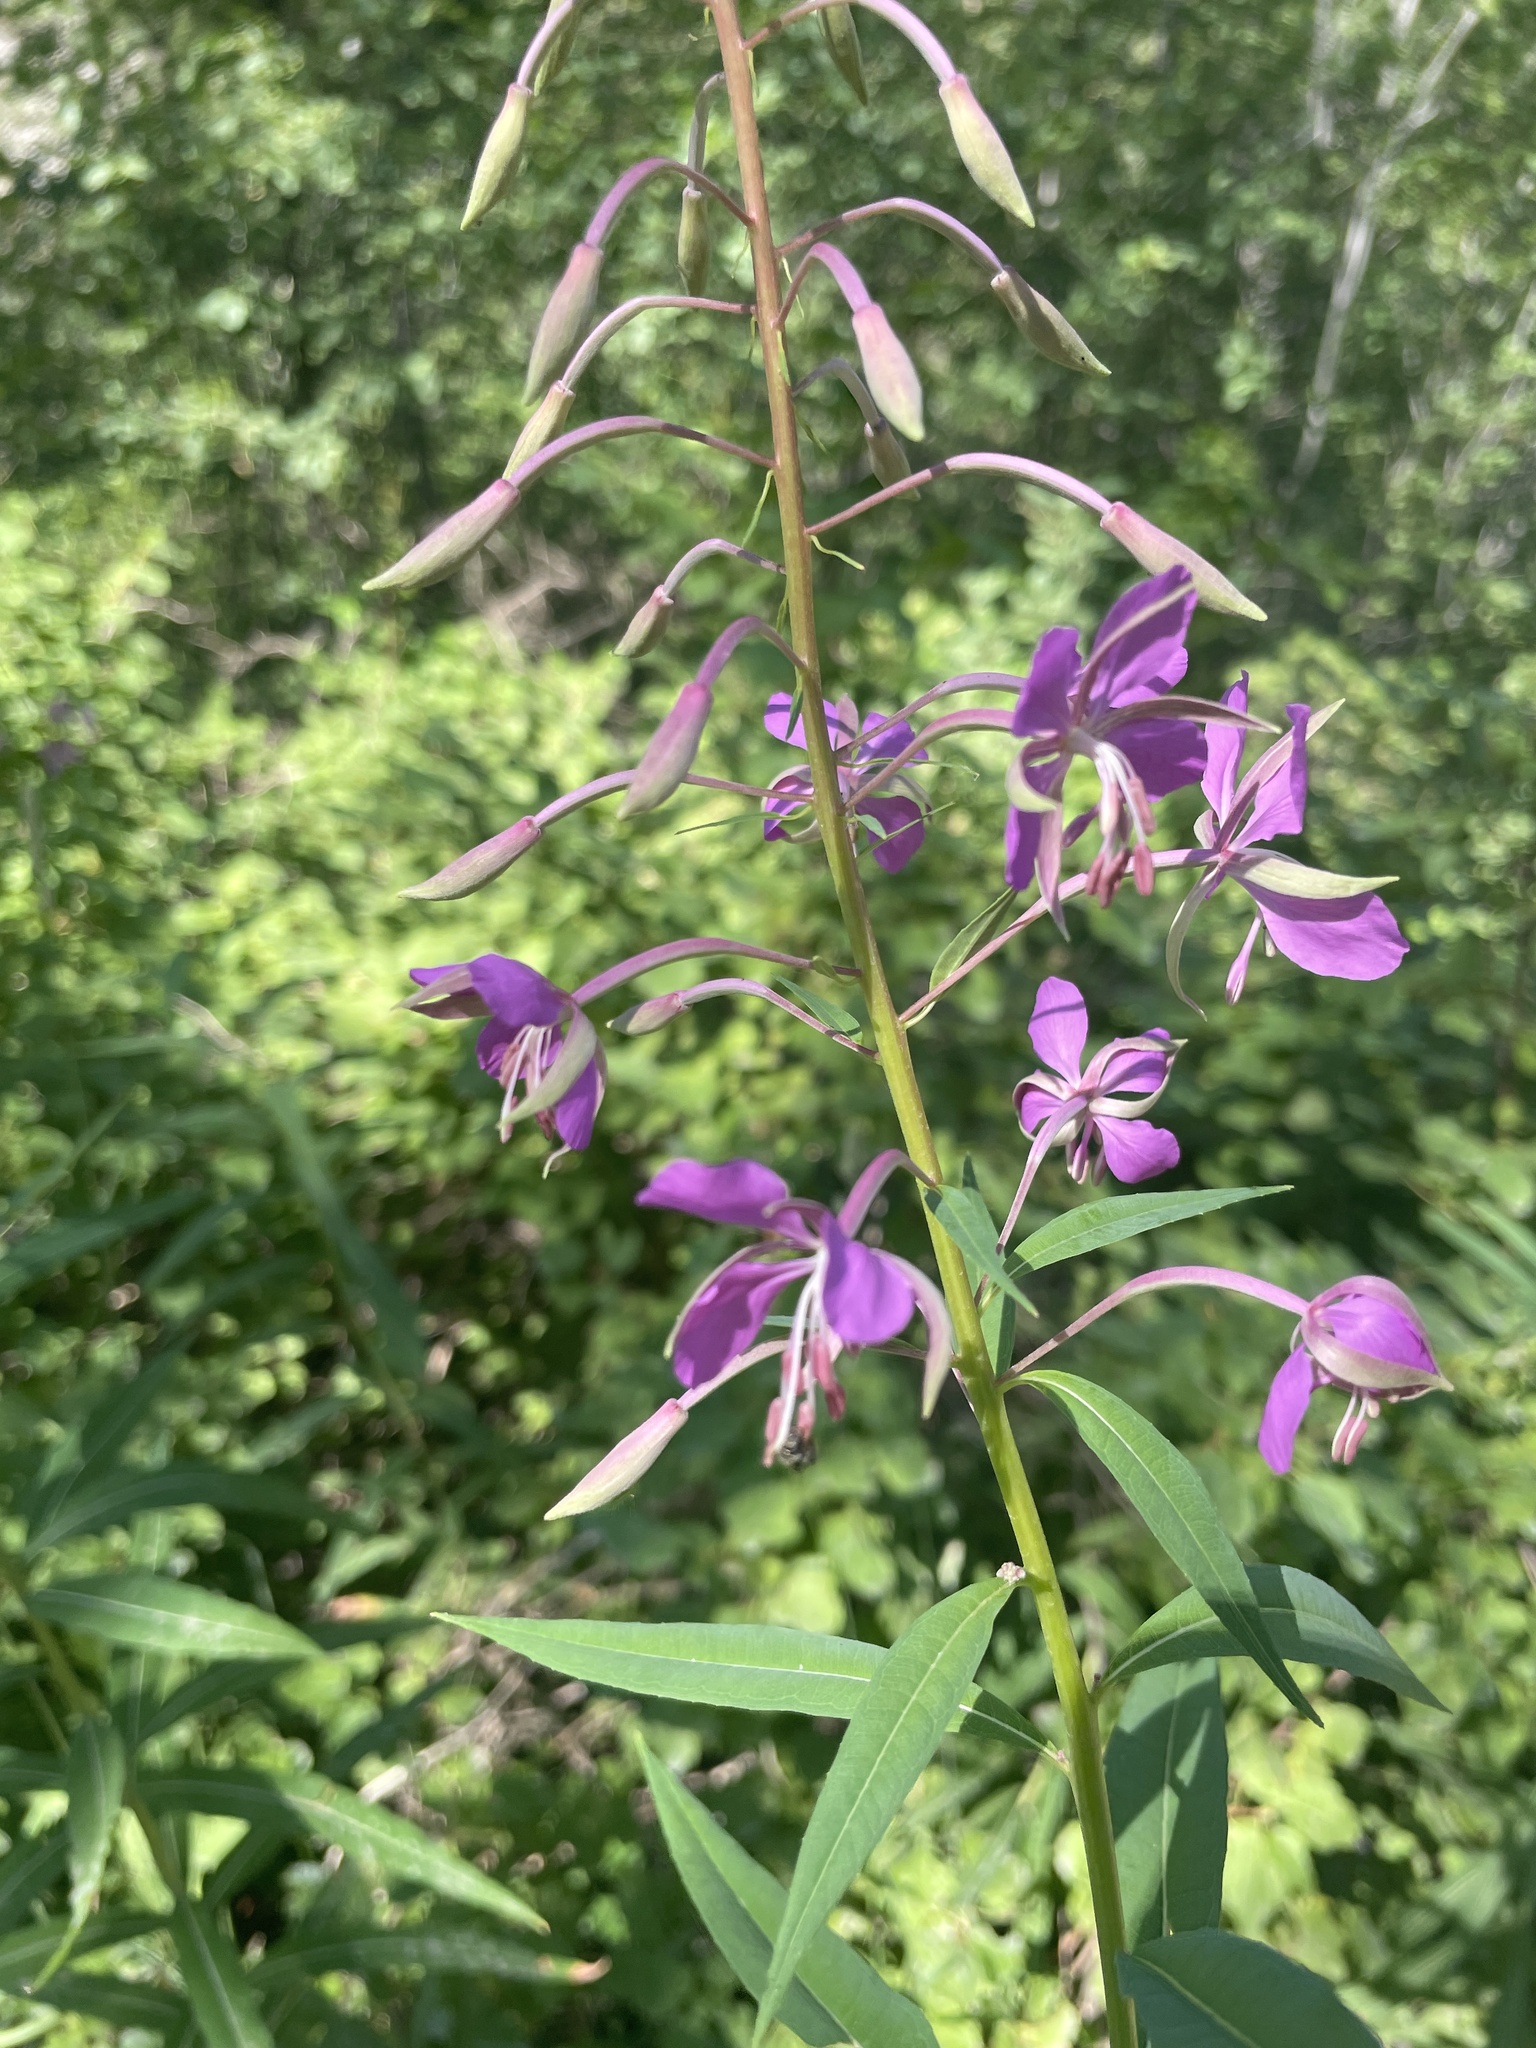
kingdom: Plantae
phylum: Tracheophyta
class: Magnoliopsida
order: Myrtales
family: Onagraceae
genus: Chamaenerion
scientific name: Chamaenerion angustifolium
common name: Fireweed
